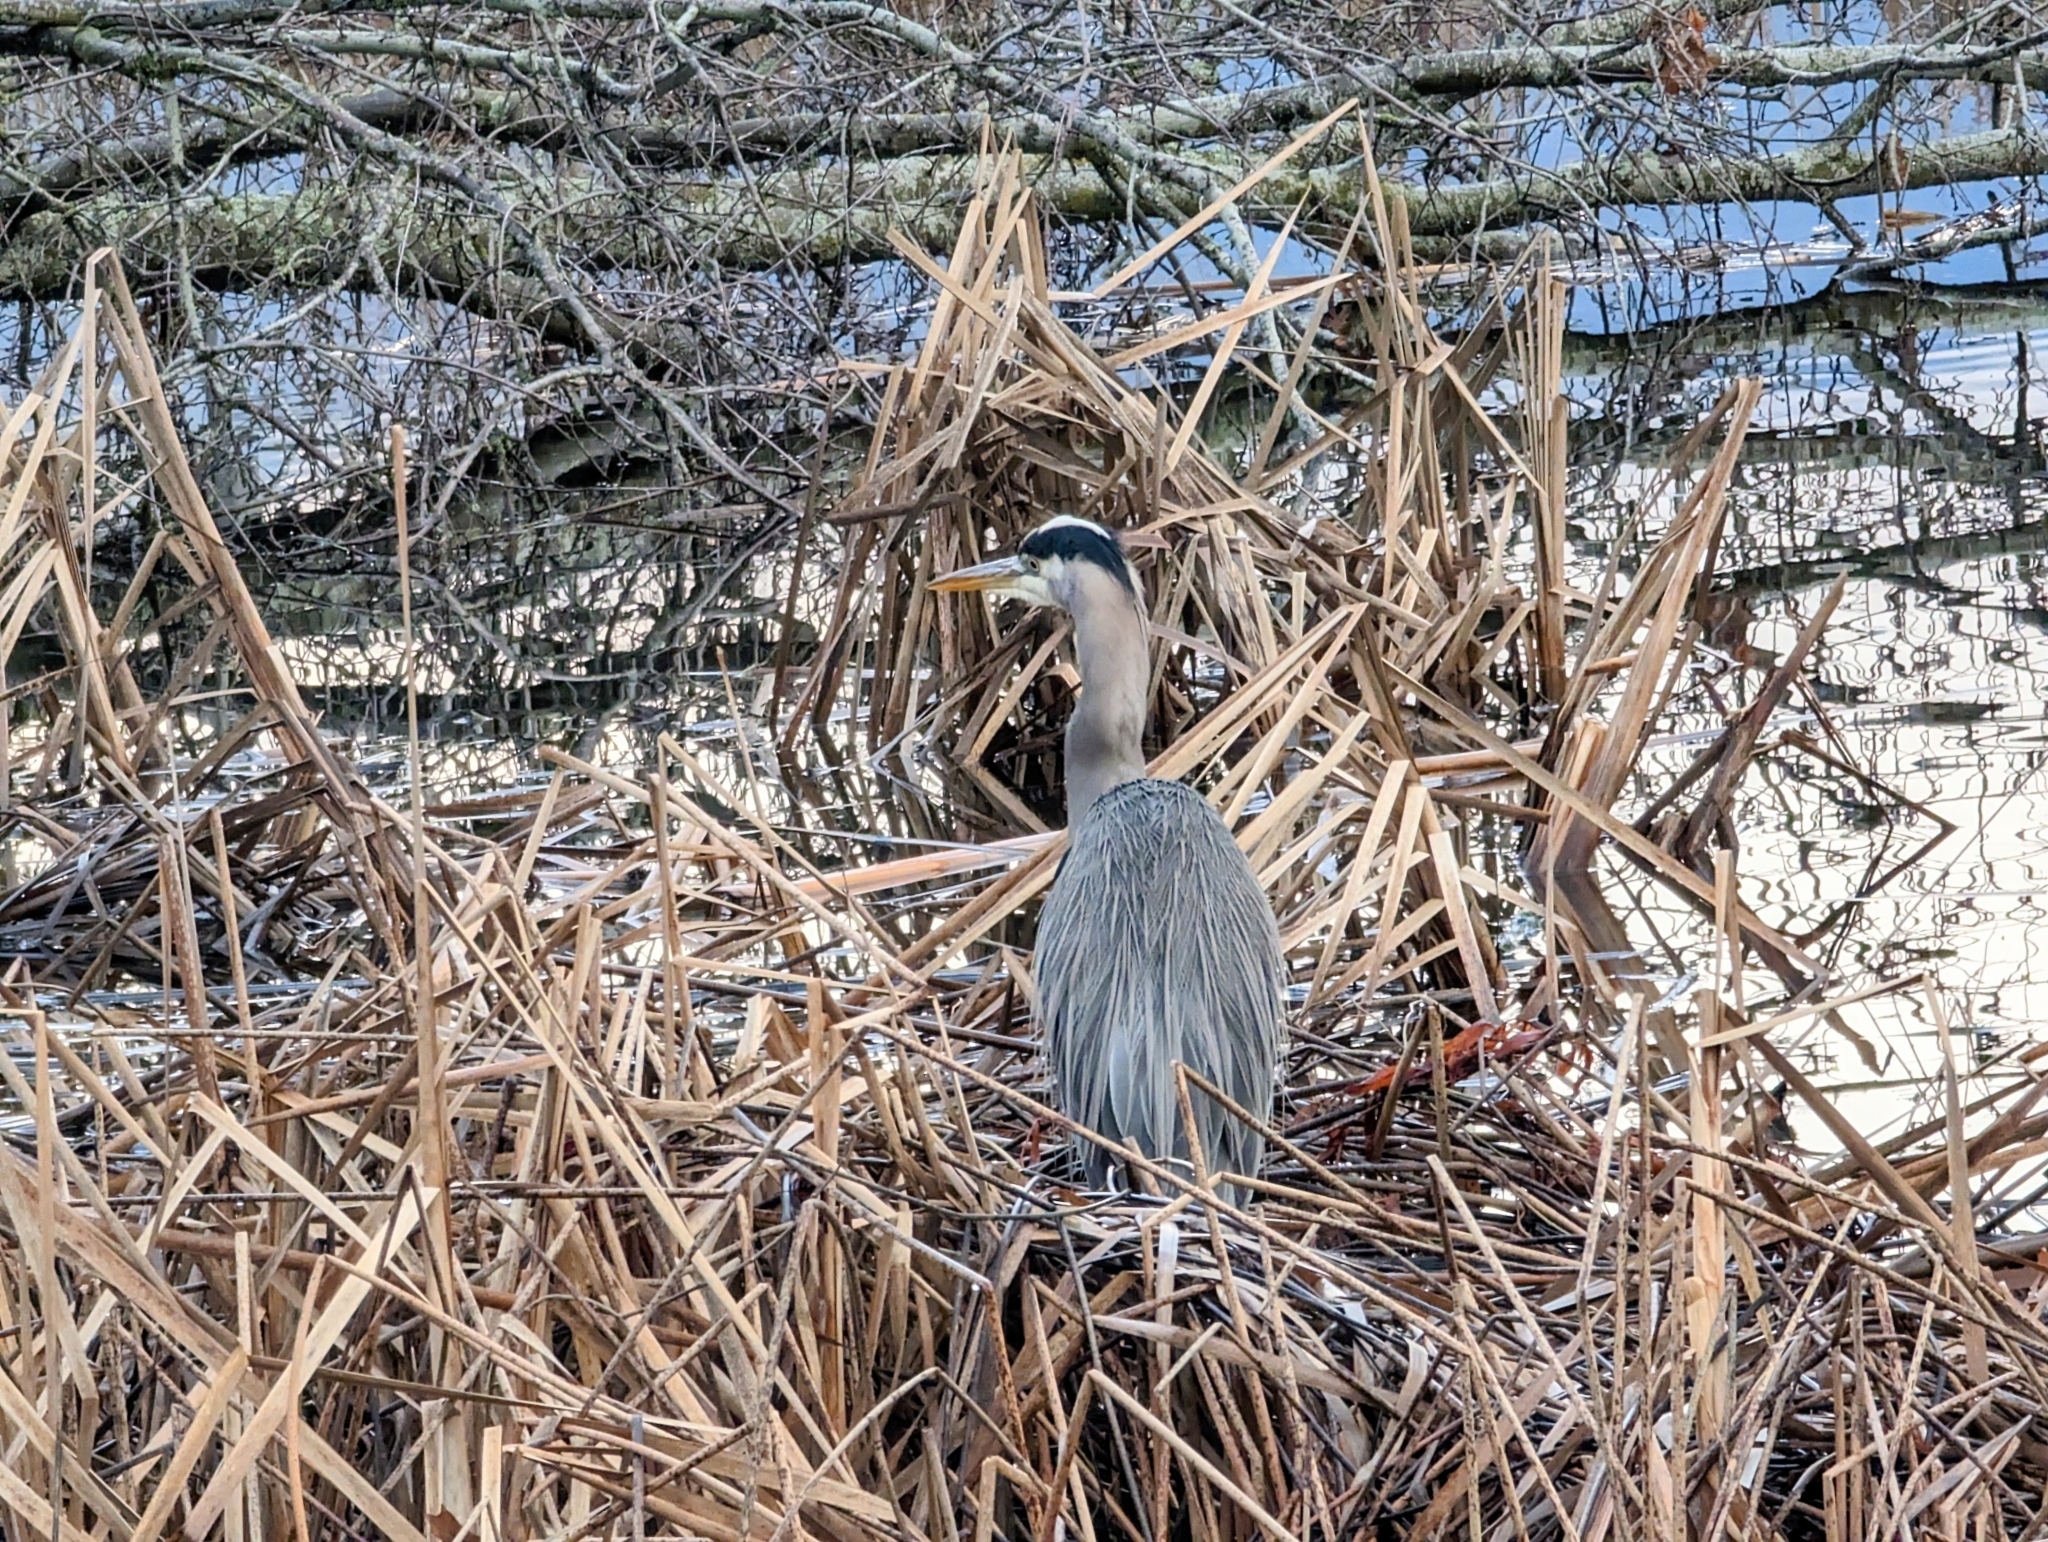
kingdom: Animalia
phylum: Chordata
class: Aves
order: Pelecaniformes
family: Ardeidae
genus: Ardea
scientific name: Ardea herodias
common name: Great blue heron
